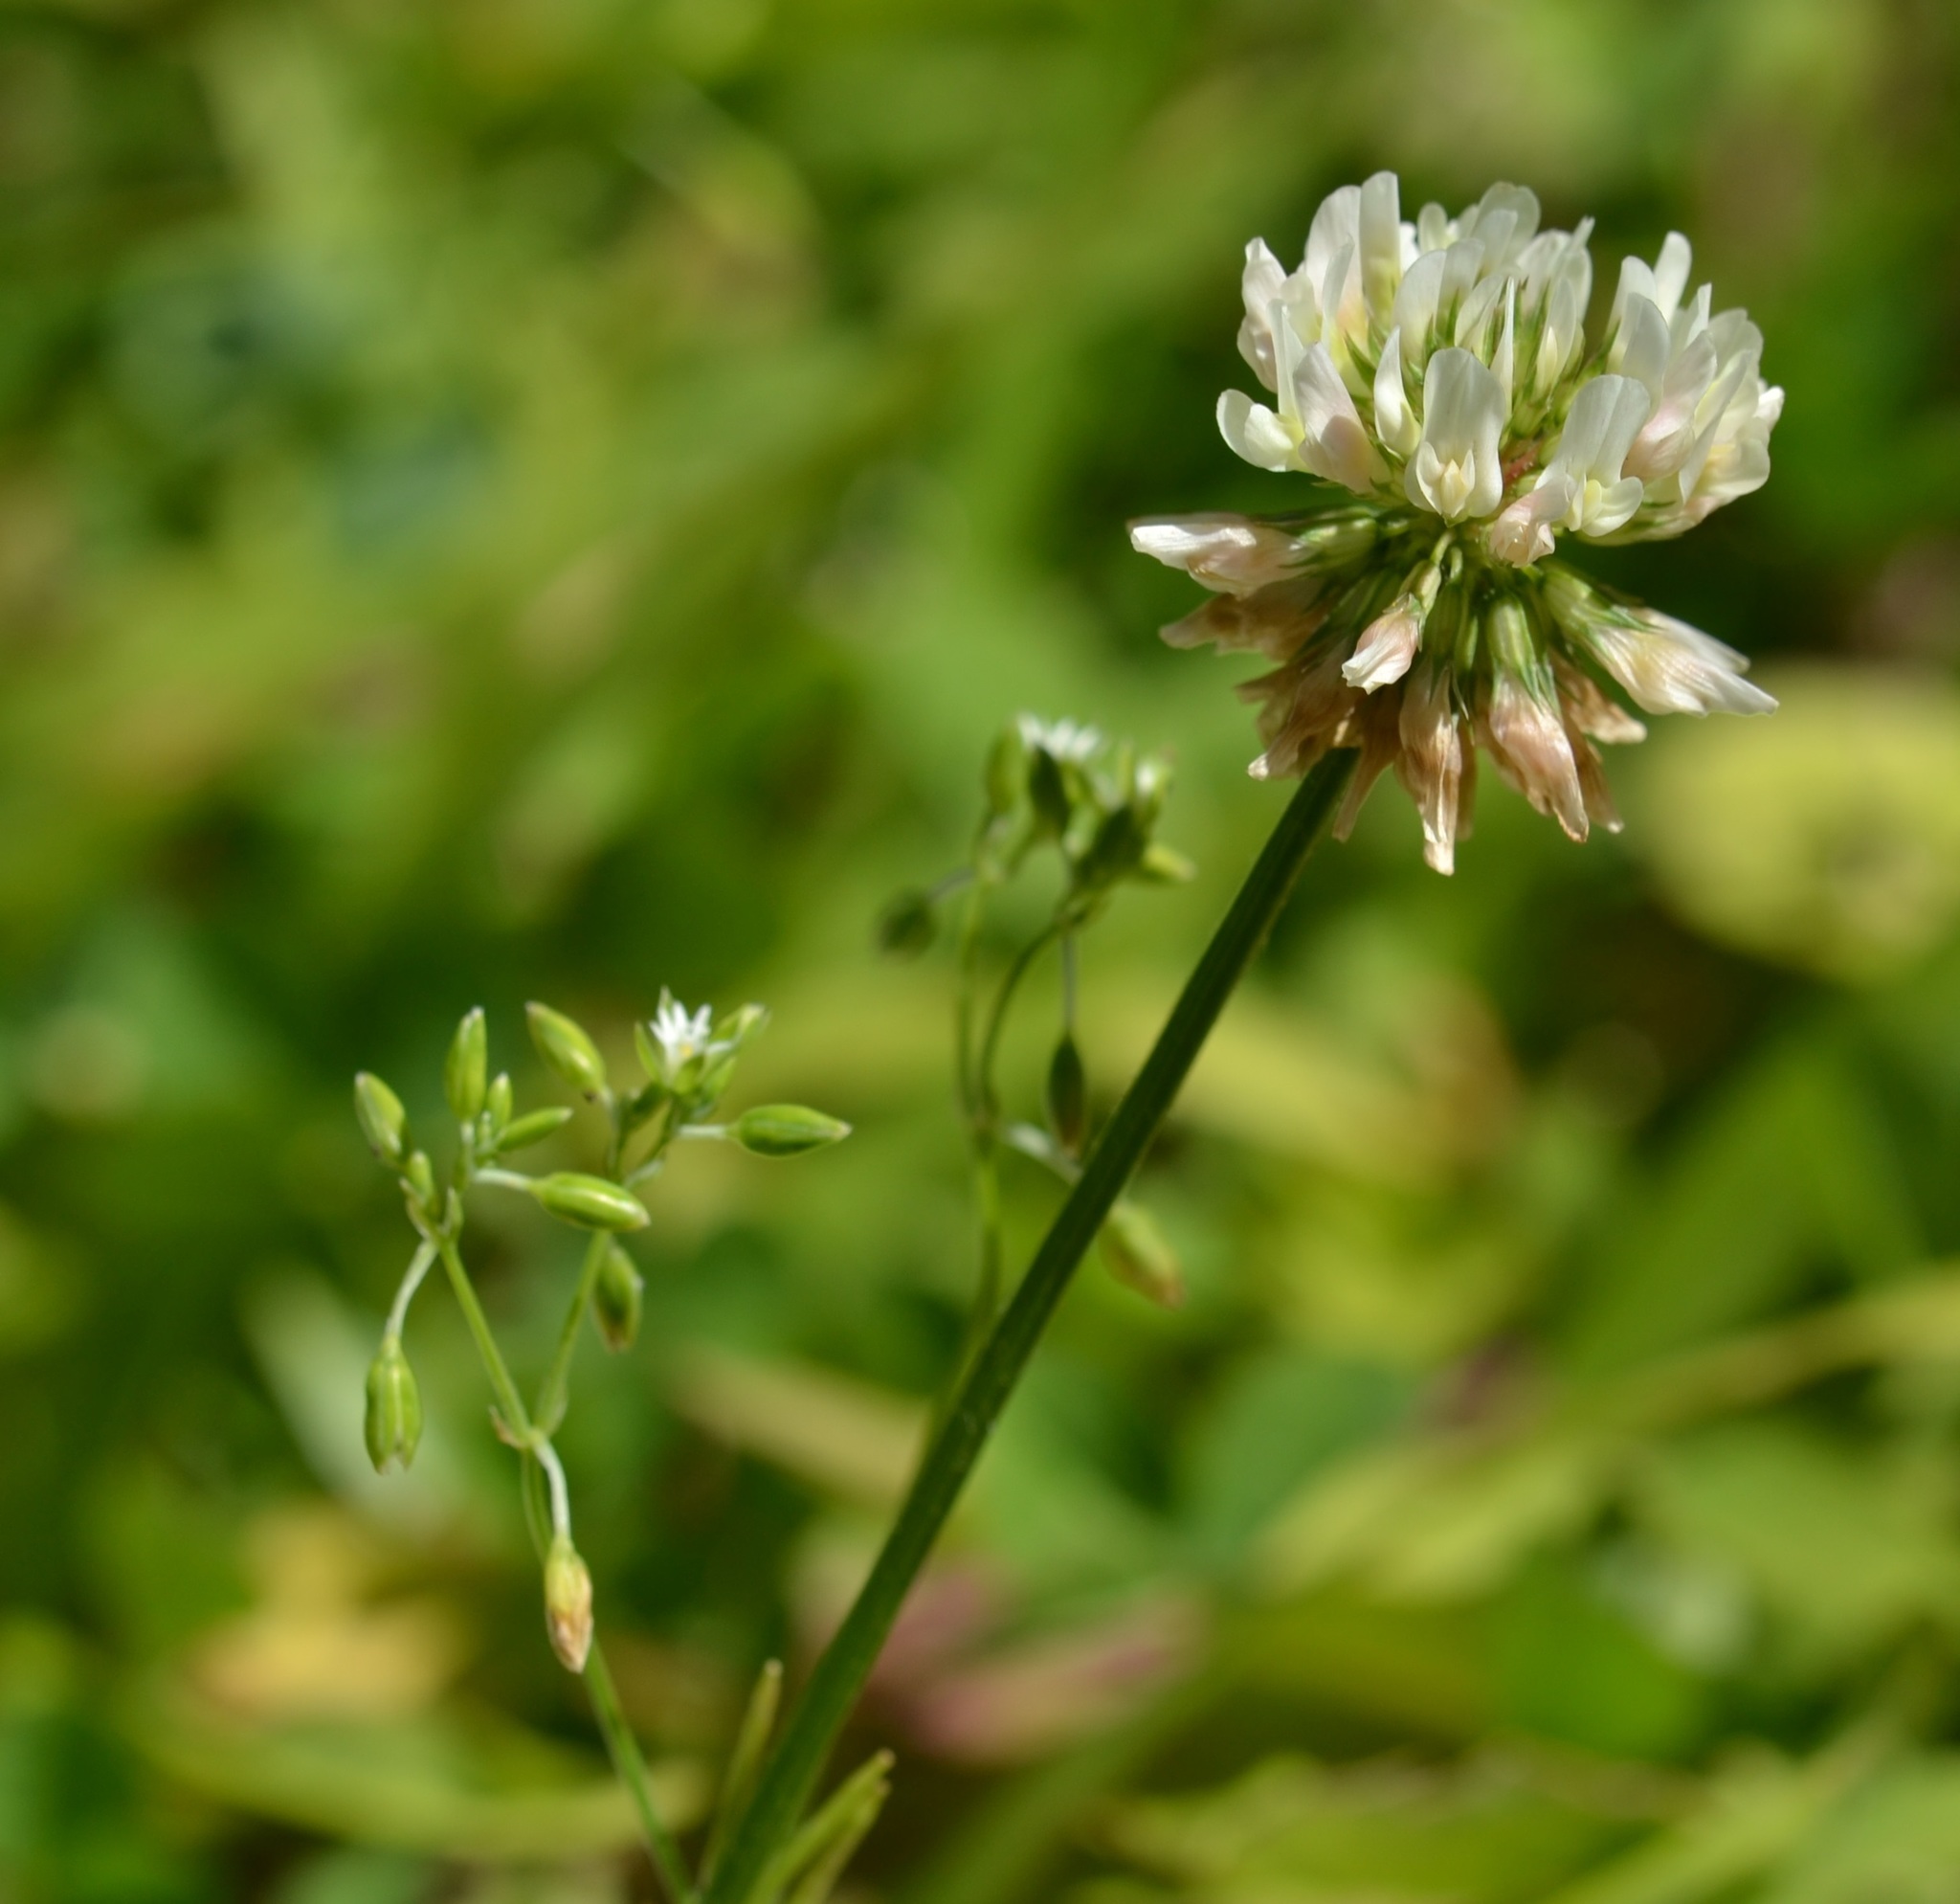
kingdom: Plantae
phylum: Tracheophyta
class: Magnoliopsida
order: Fabales
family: Fabaceae
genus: Trifolium
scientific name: Trifolium repens
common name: White clover
